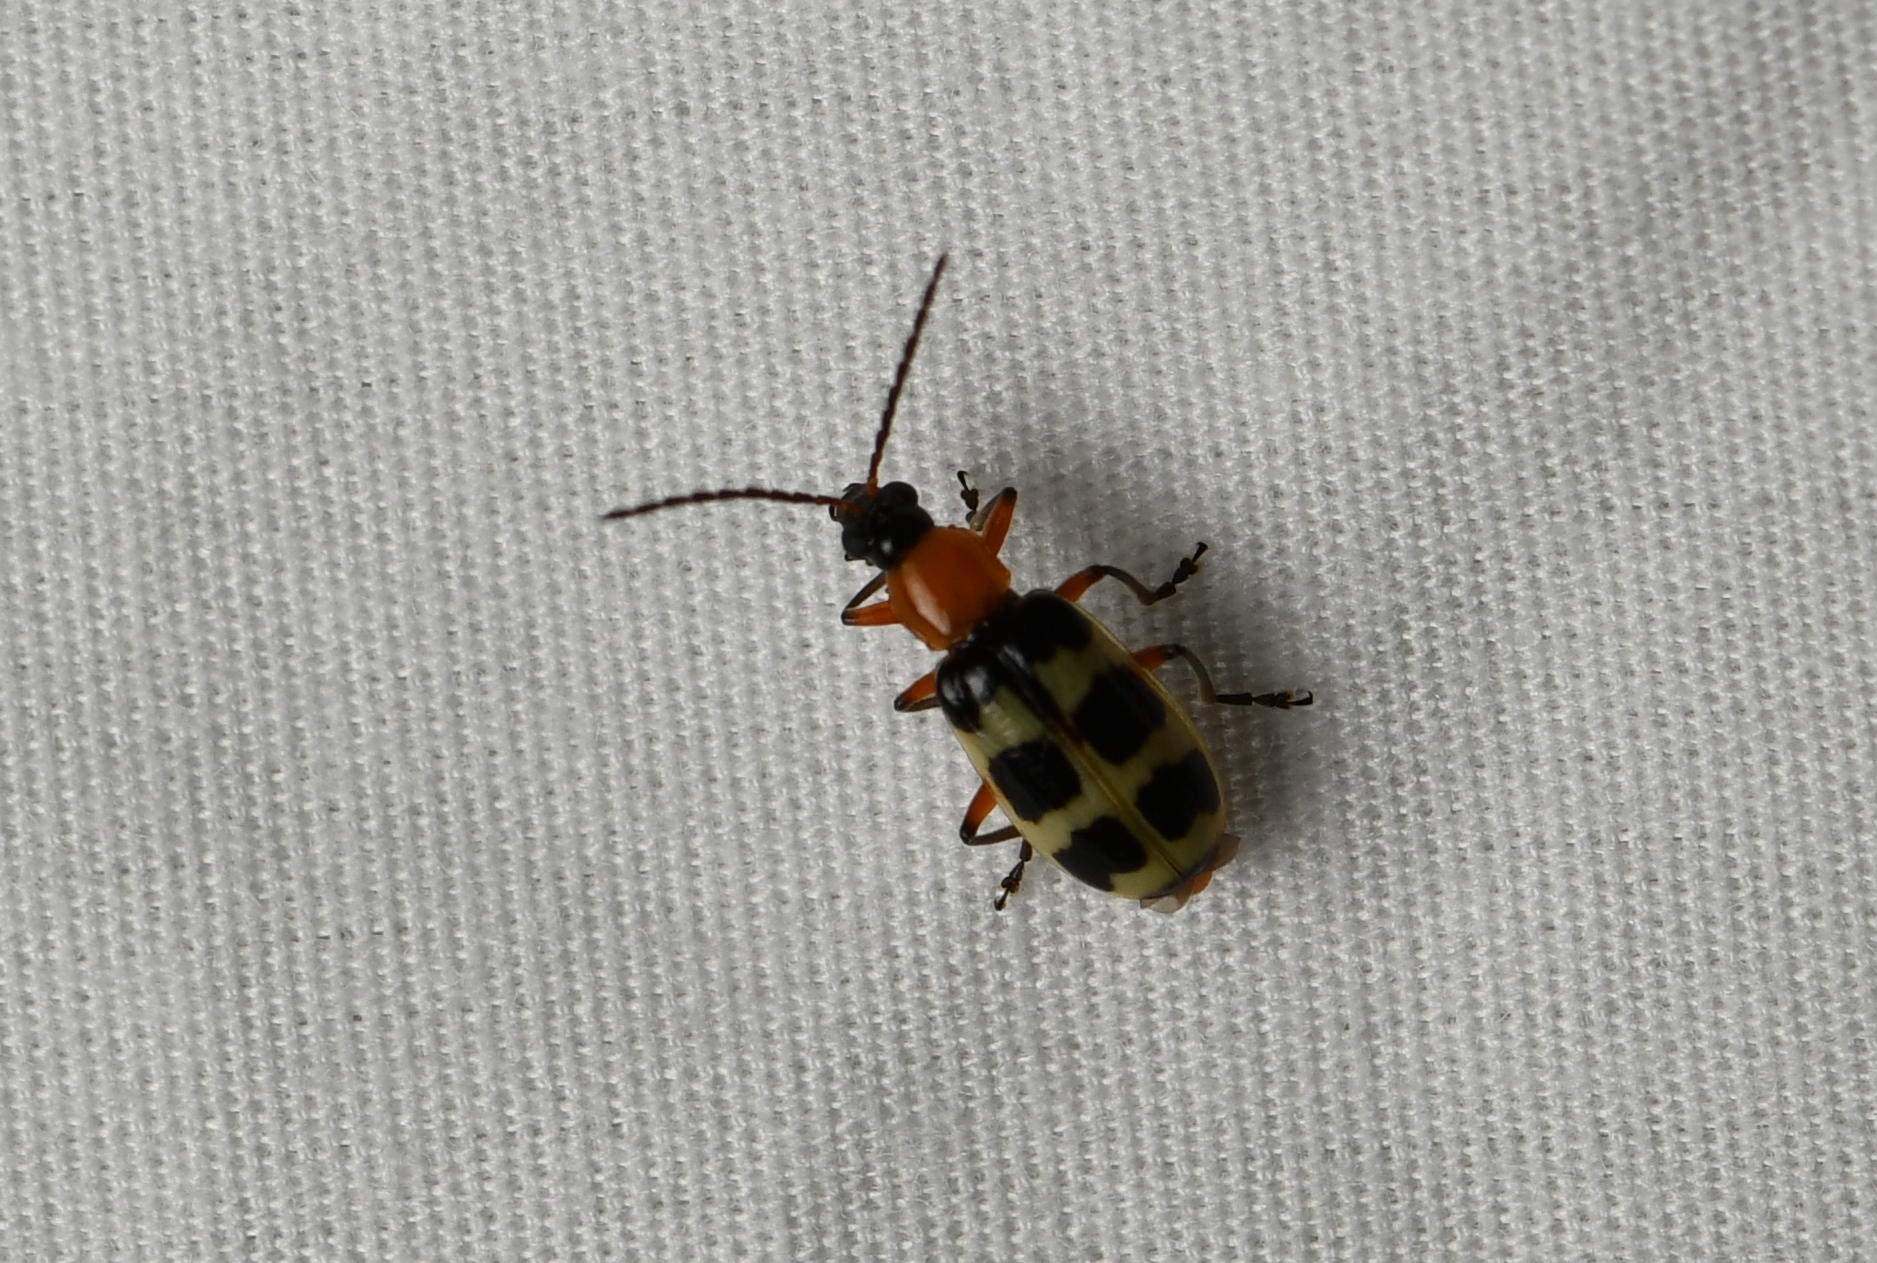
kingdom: Animalia
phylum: Arthropoda
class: Insecta
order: Coleoptera
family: Chrysomelidae
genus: Paranapiacaba
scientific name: Paranapiacaba tricincta
